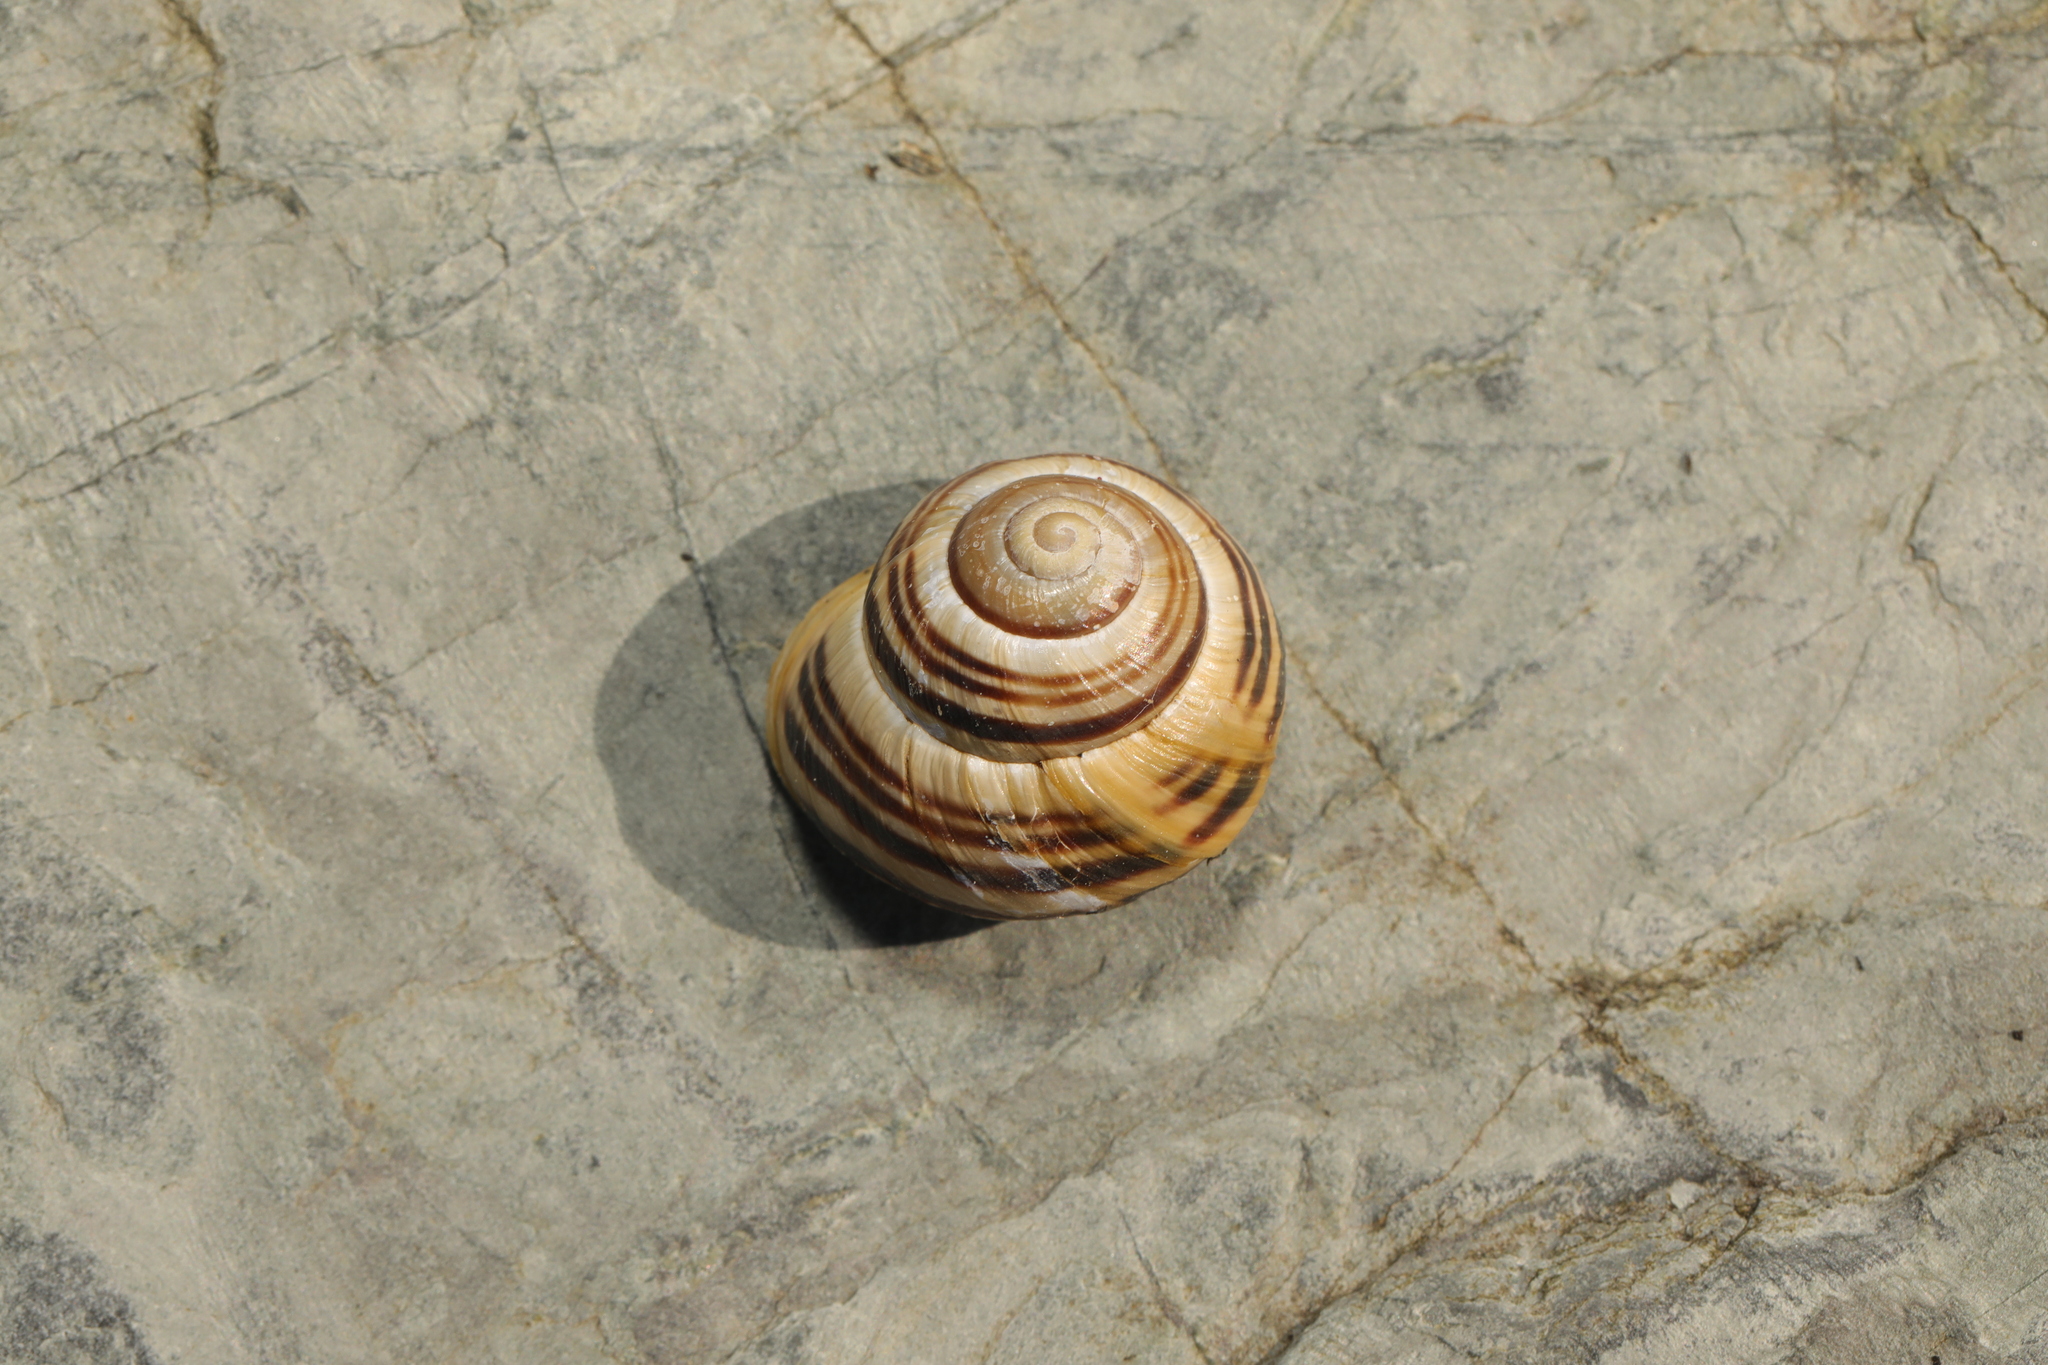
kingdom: Animalia
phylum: Mollusca
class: Gastropoda
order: Stylommatophora
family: Helicidae
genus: Cepaea
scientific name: Cepaea hortensis
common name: White-lip gardensnail
